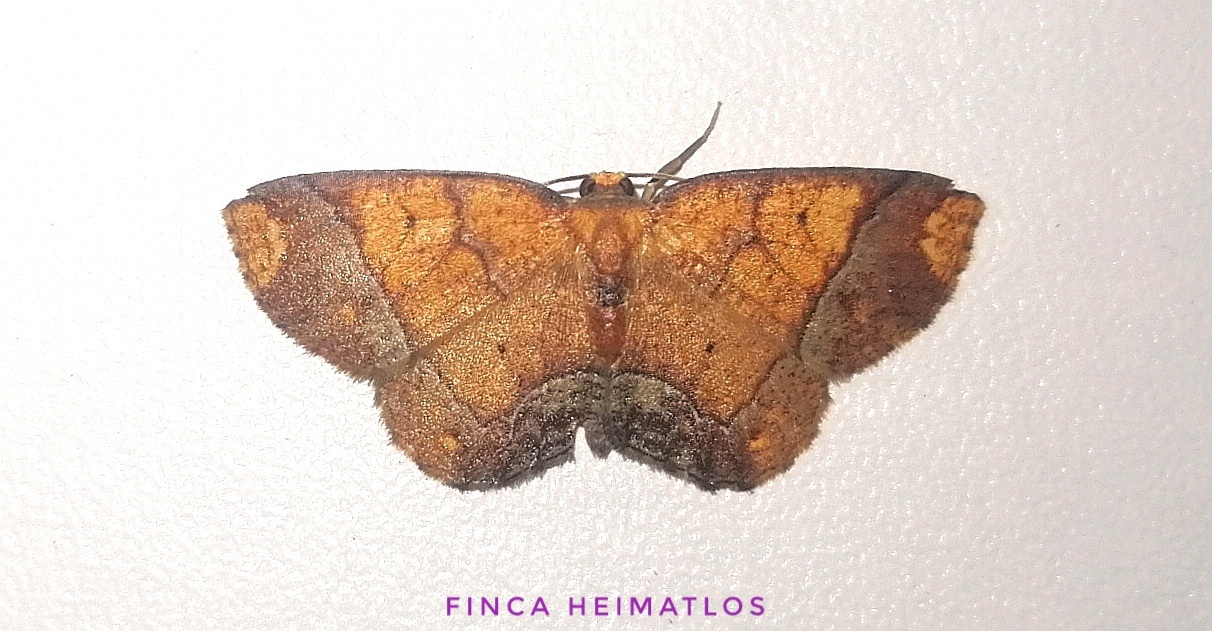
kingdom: Animalia
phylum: Arthropoda
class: Insecta
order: Lepidoptera
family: Geometridae
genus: Melinoides
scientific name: Melinoides detersaria
